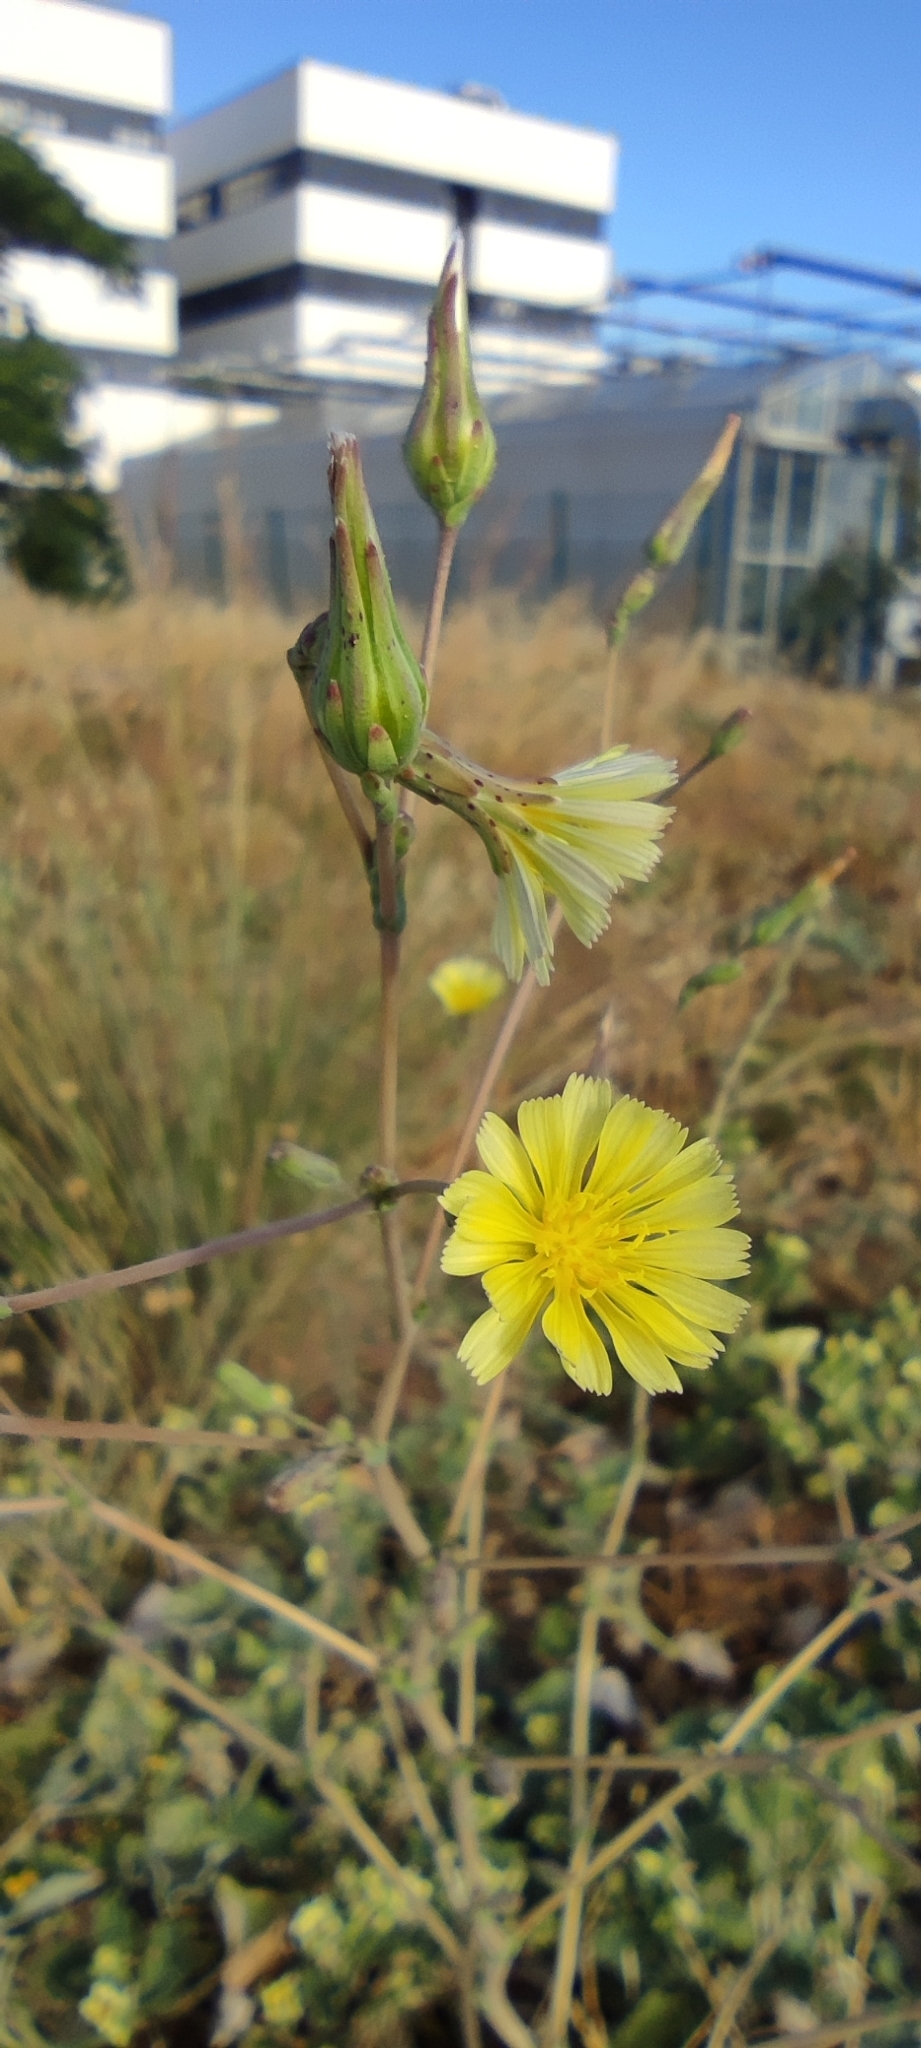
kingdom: Plantae
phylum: Tracheophyta
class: Magnoliopsida
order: Asterales
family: Asteraceae
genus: Lactuca
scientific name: Lactuca serriola
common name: Prickly lettuce
